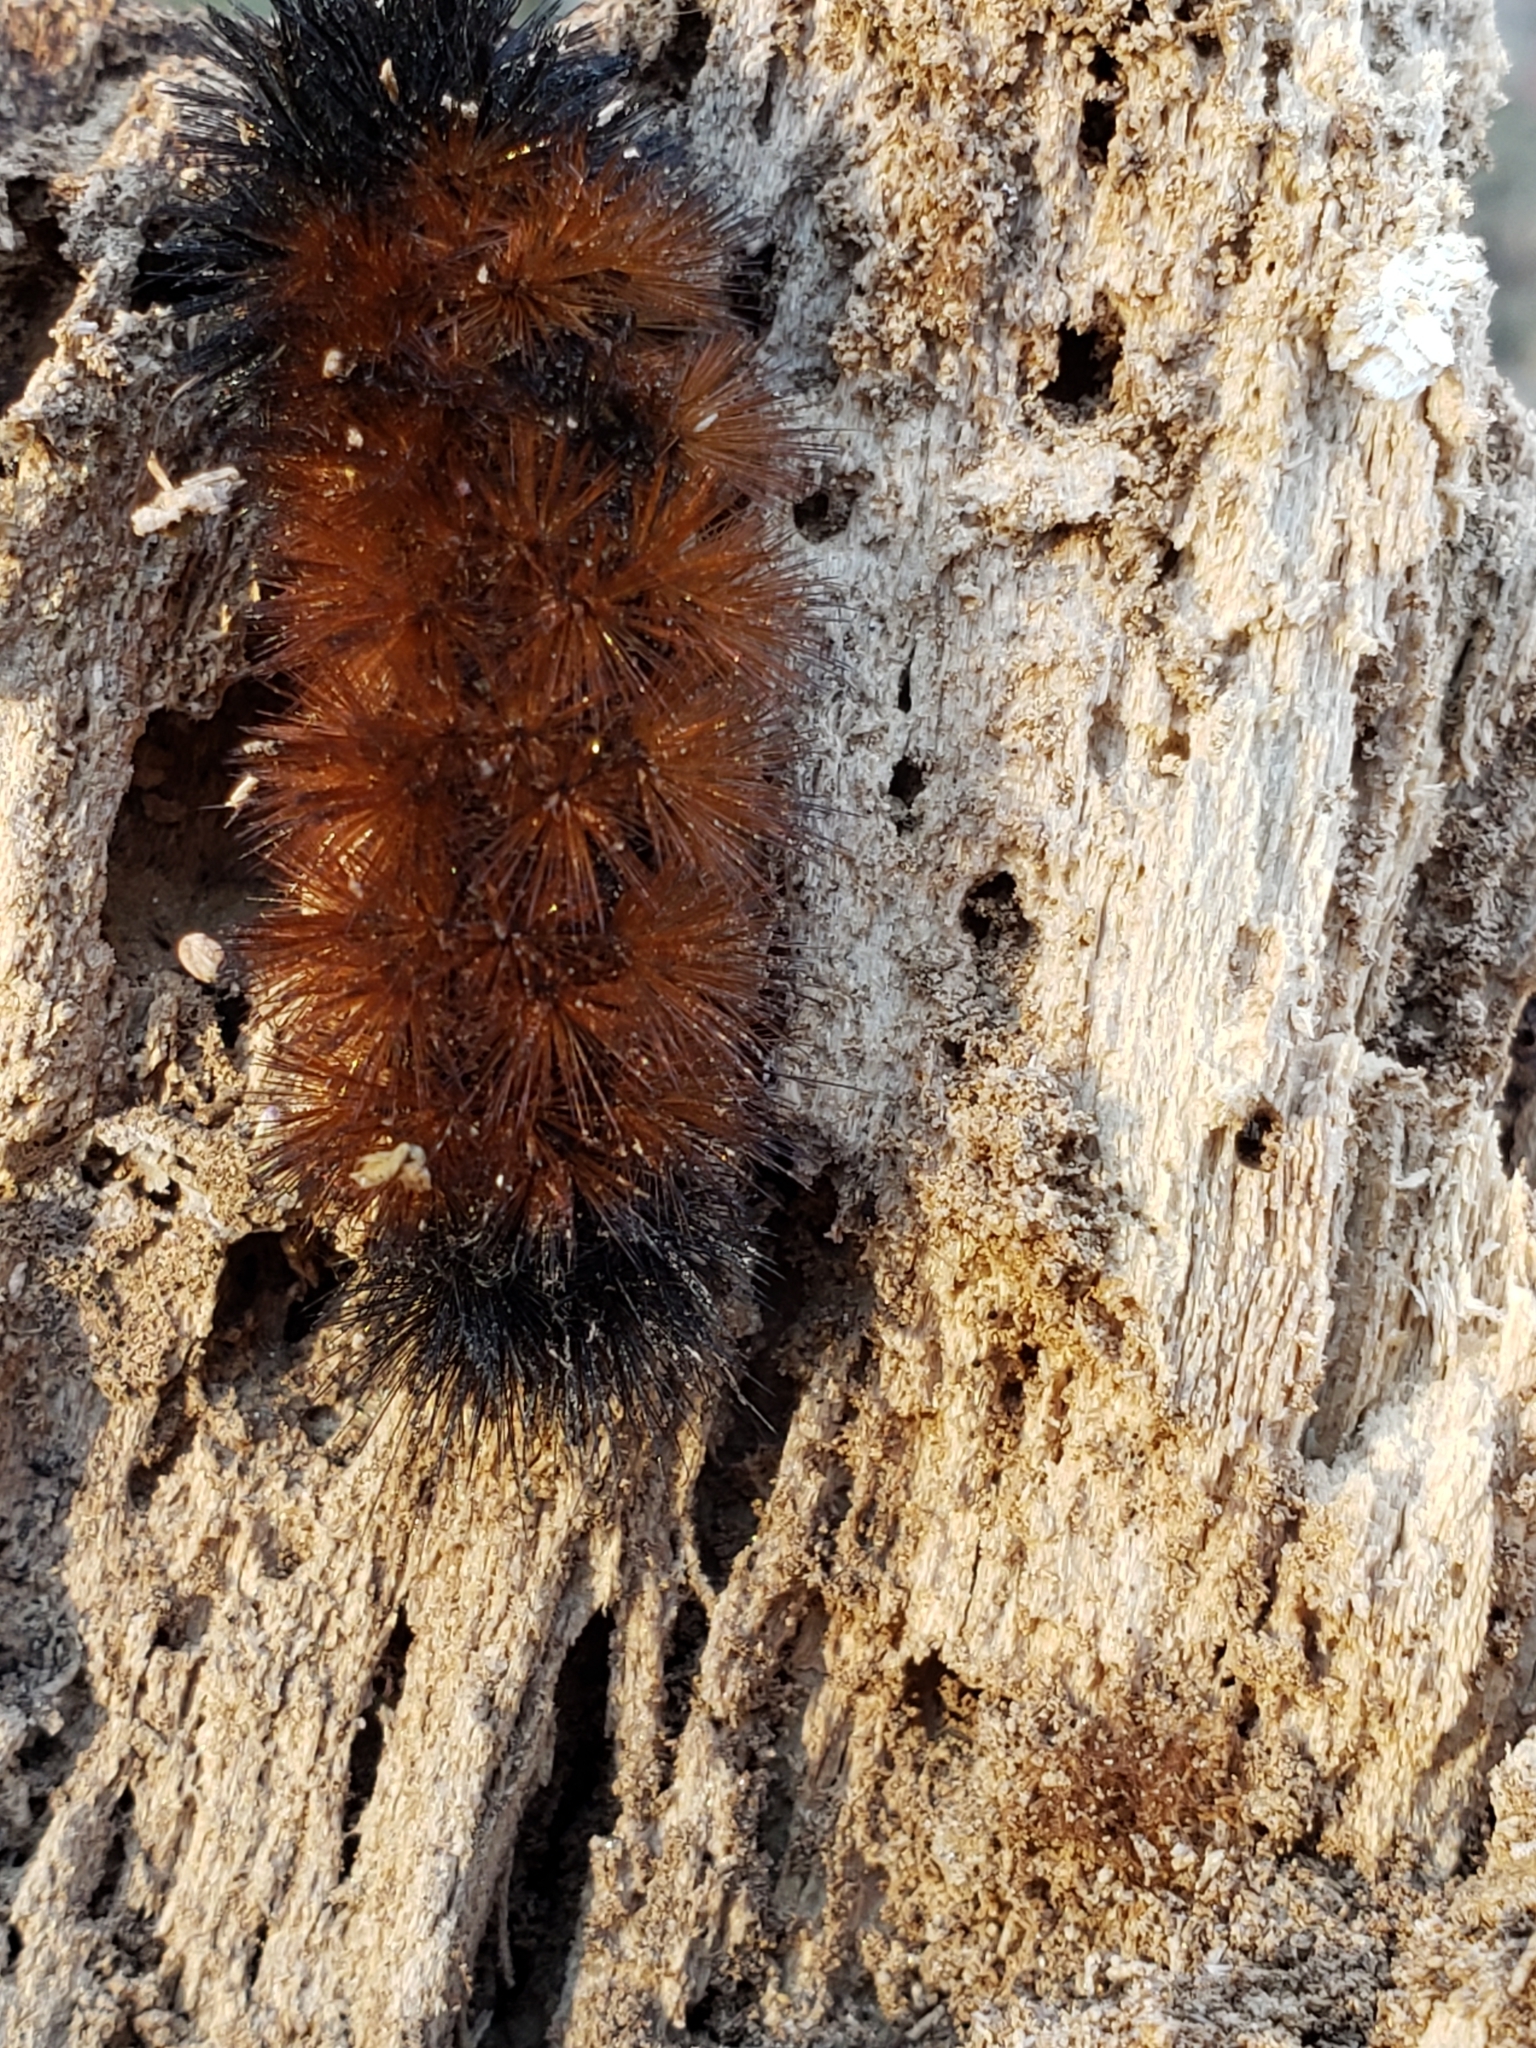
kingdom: Animalia
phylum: Arthropoda
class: Insecta
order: Lepidoptera
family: Erebidae
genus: Pyrrharctia
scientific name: Pyrrharctia isabella
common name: Isabella tiger moth
